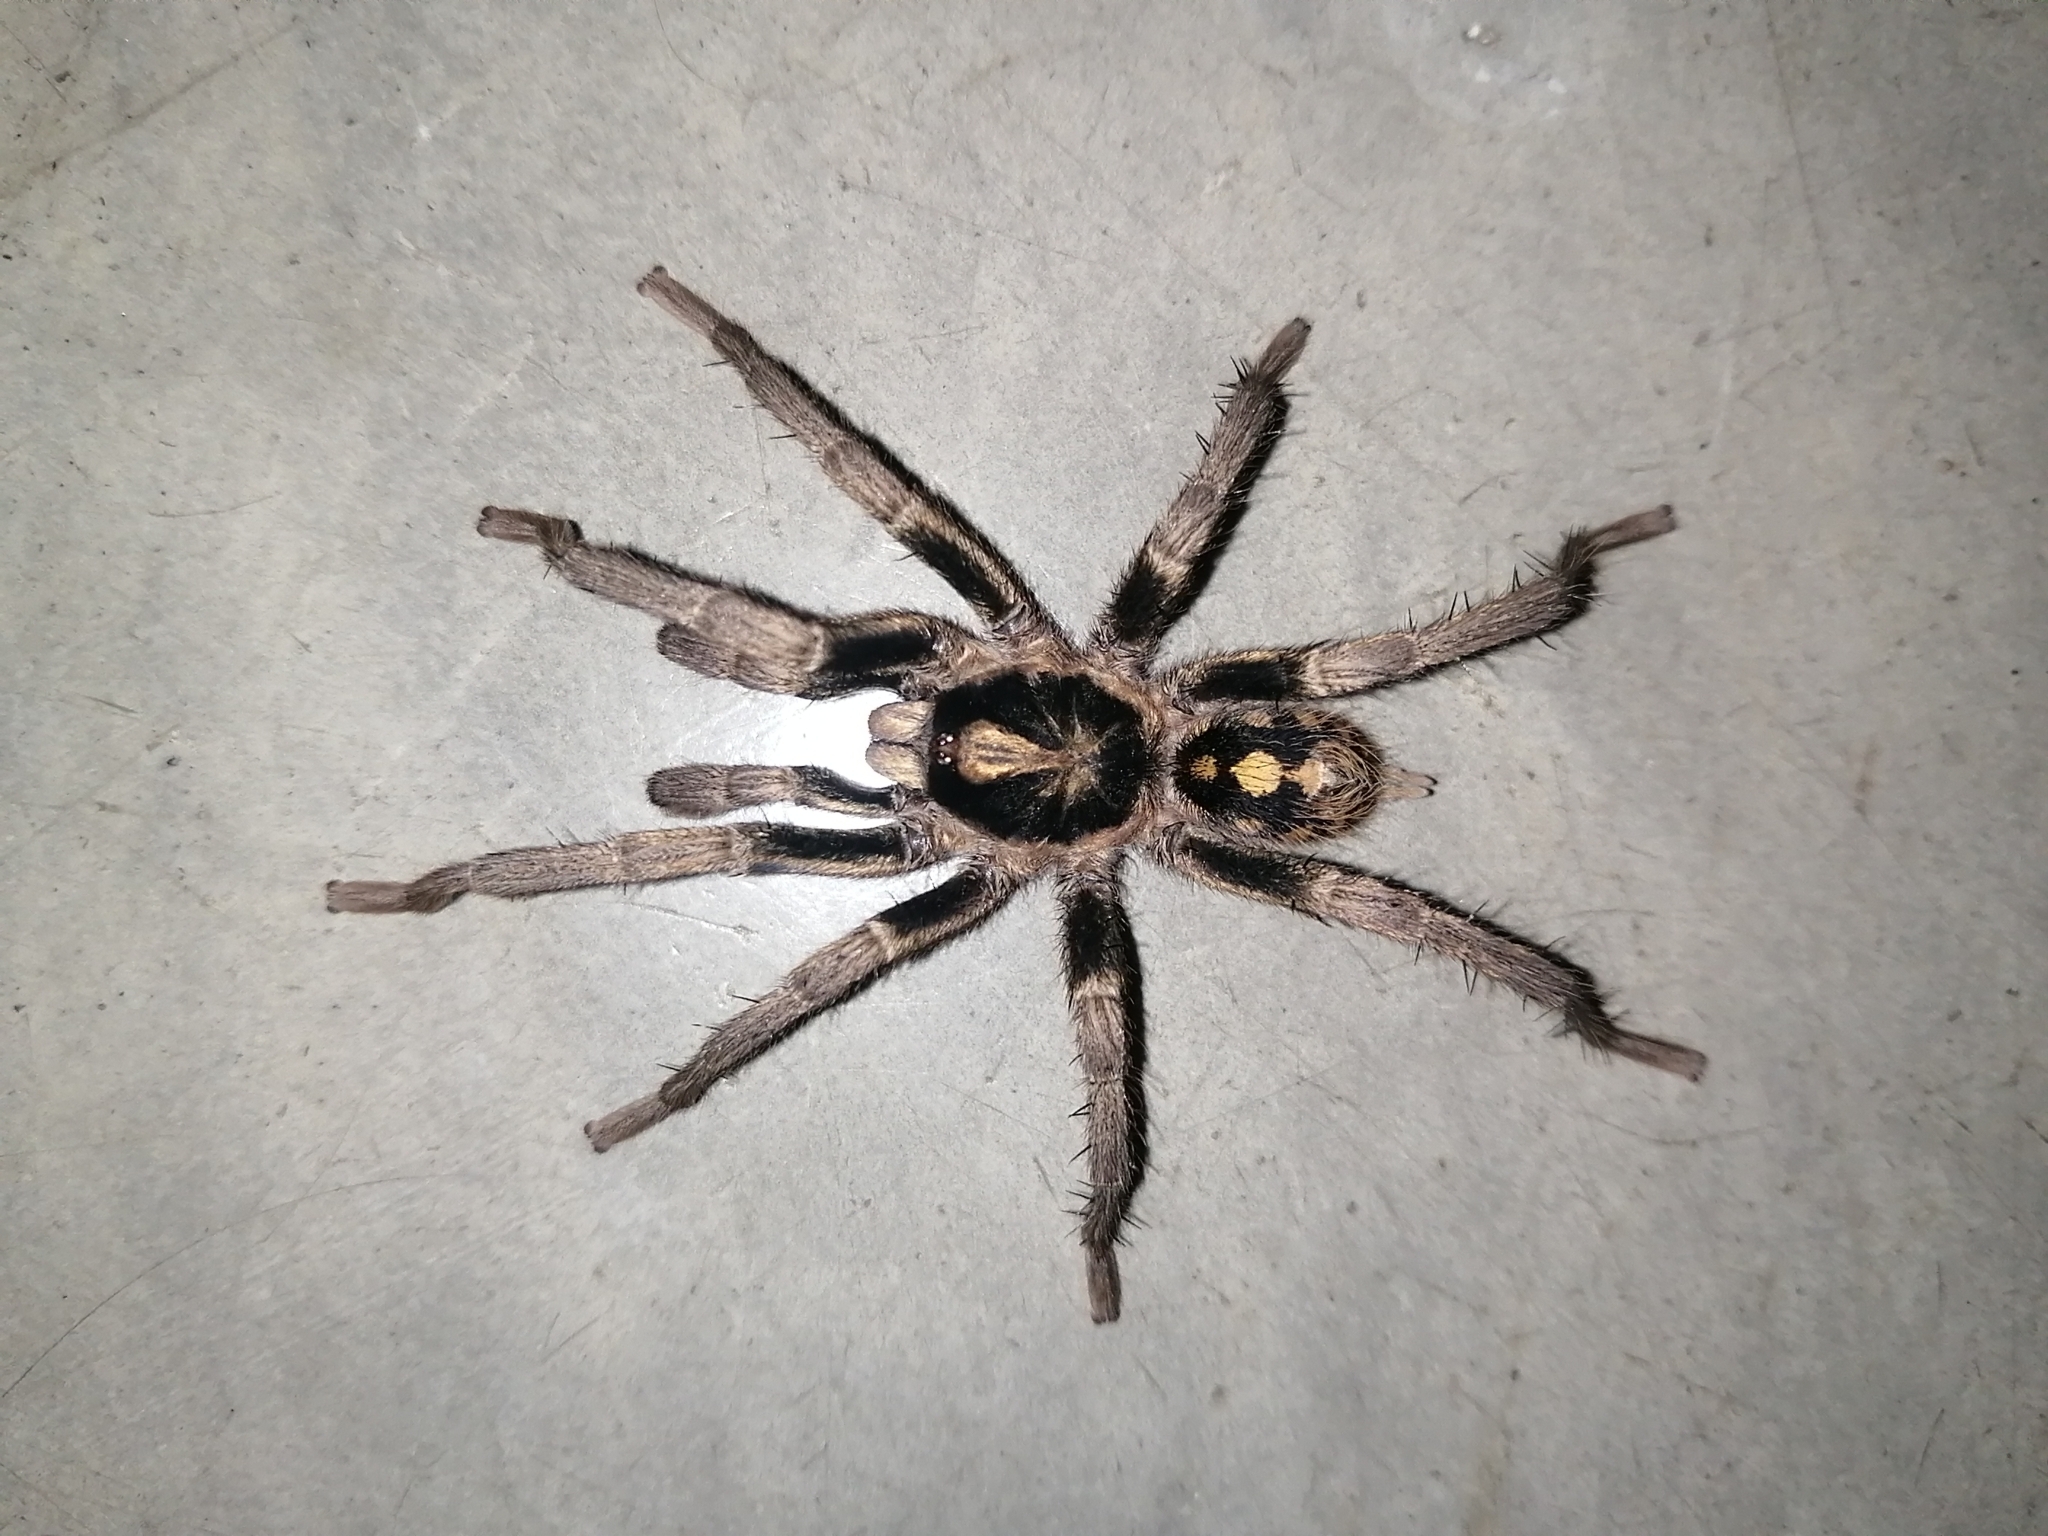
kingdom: Animalia
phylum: Arthropoda
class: Arachnida
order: Araneae
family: Theraphosidae
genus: Hapalopus
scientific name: Hapalopus formosus
